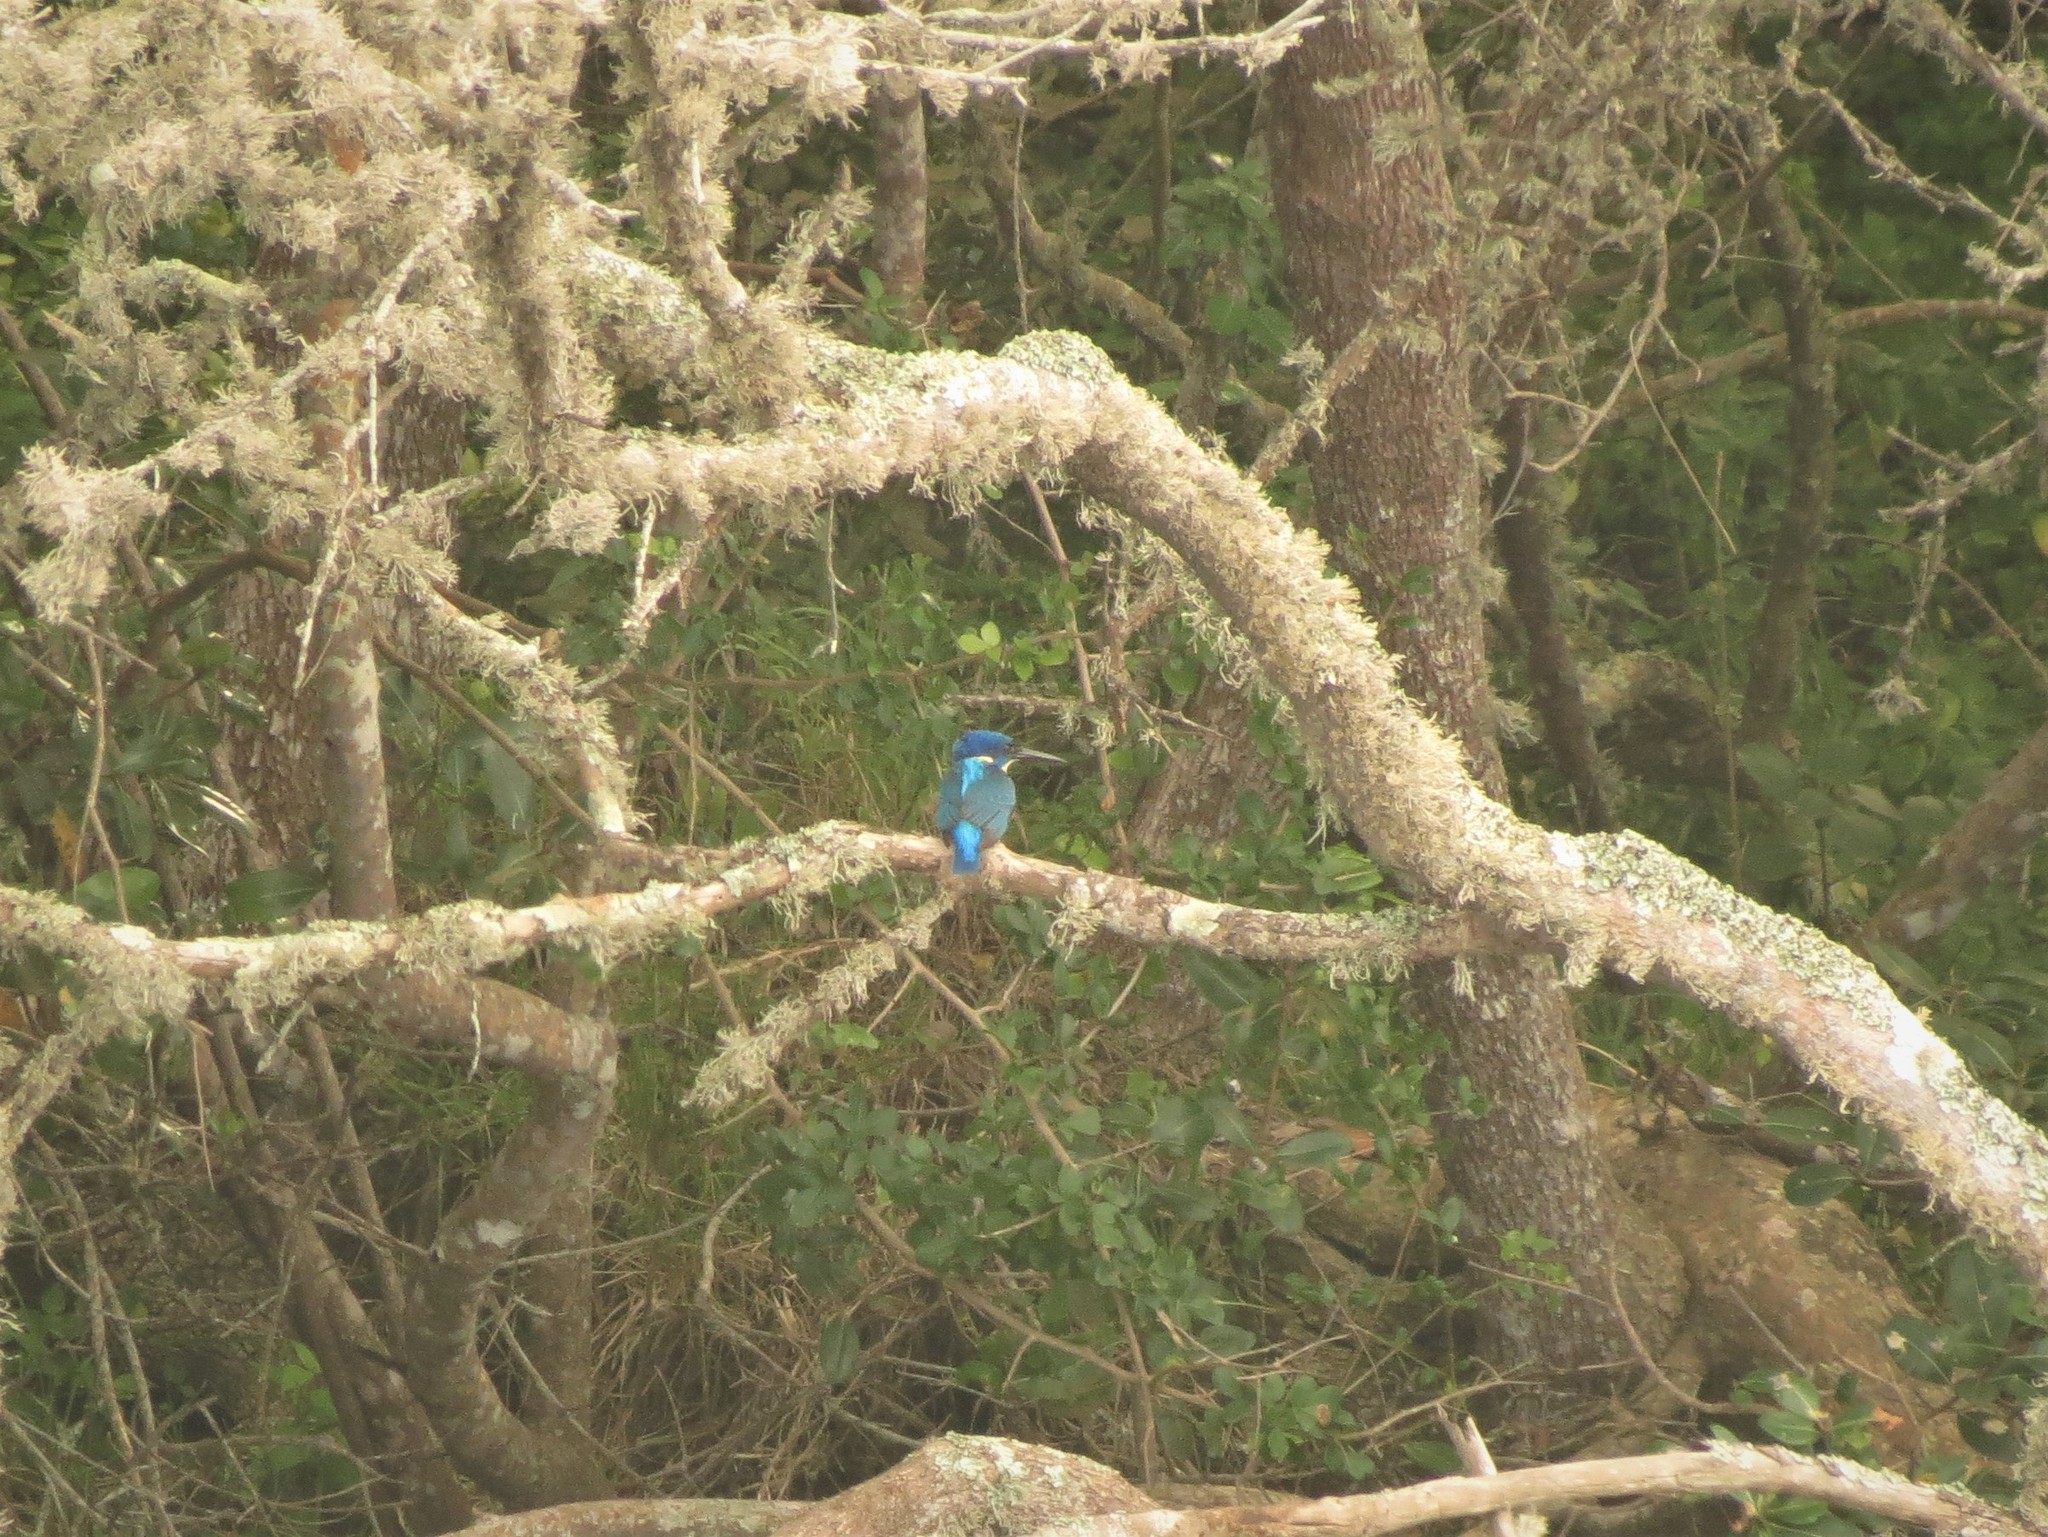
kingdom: Animalia
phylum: Chordata
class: Aves
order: Coraciiformes
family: Alcedinidae
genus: Alcedo
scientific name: Alcedo semitorquata
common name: Half-collared kingfisher
